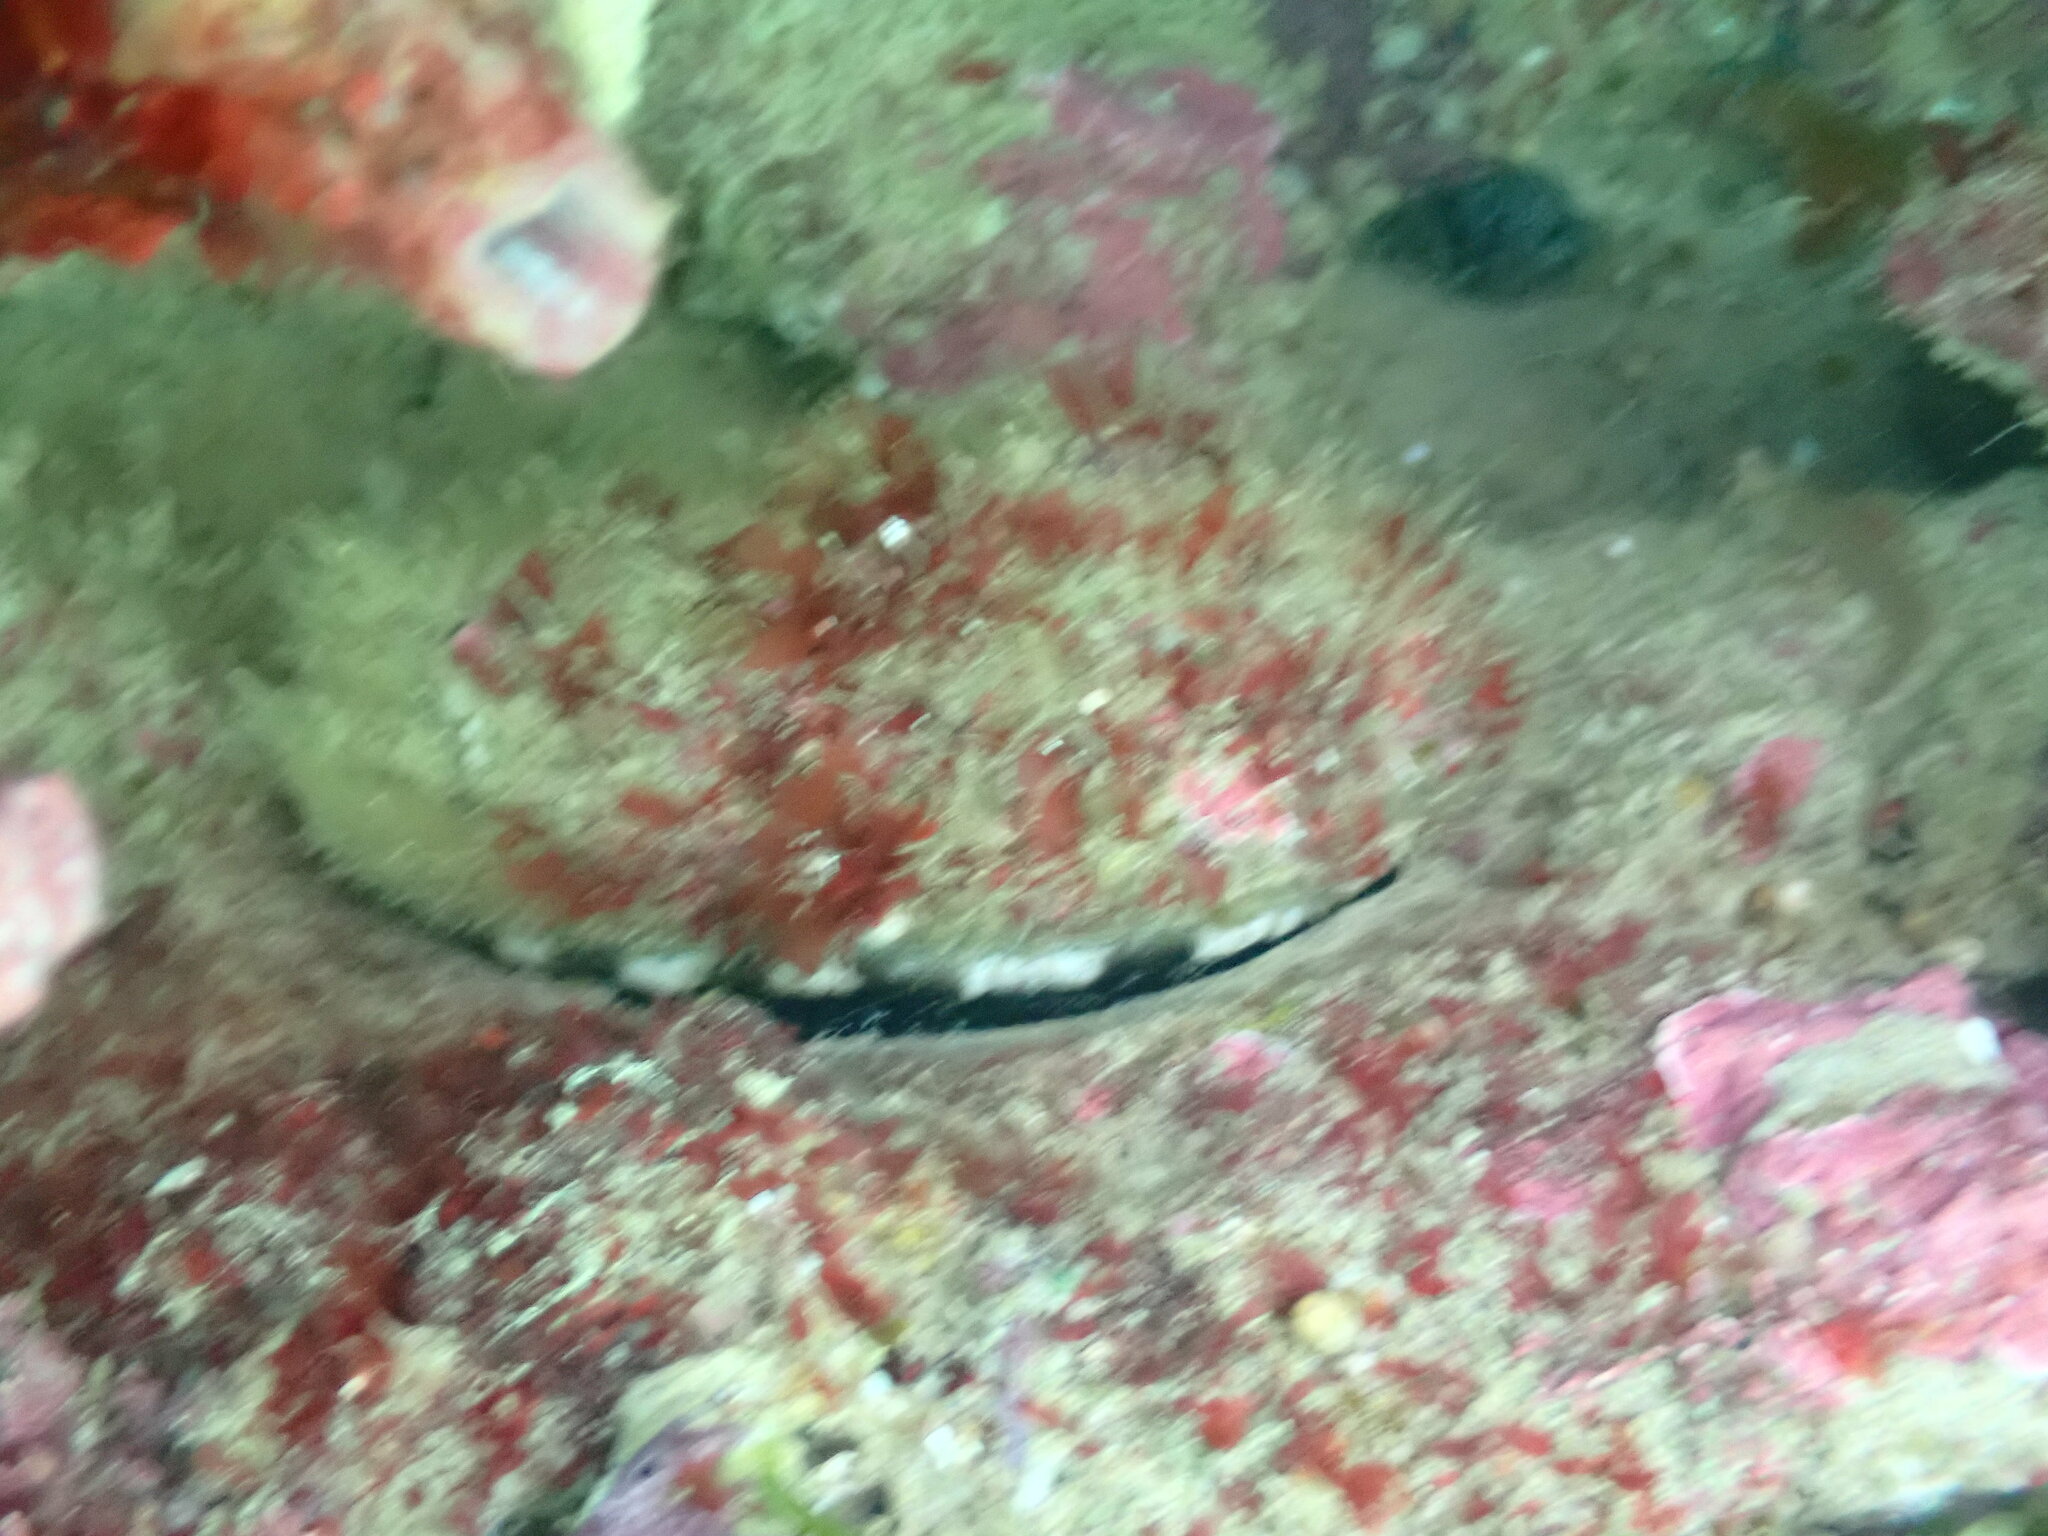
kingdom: Animalia
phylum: Mollusca
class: Gastropoda
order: Lepetellida
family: Haliotidae
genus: Haliotis
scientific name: Haliotis rubra
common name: Blacklip abalone
